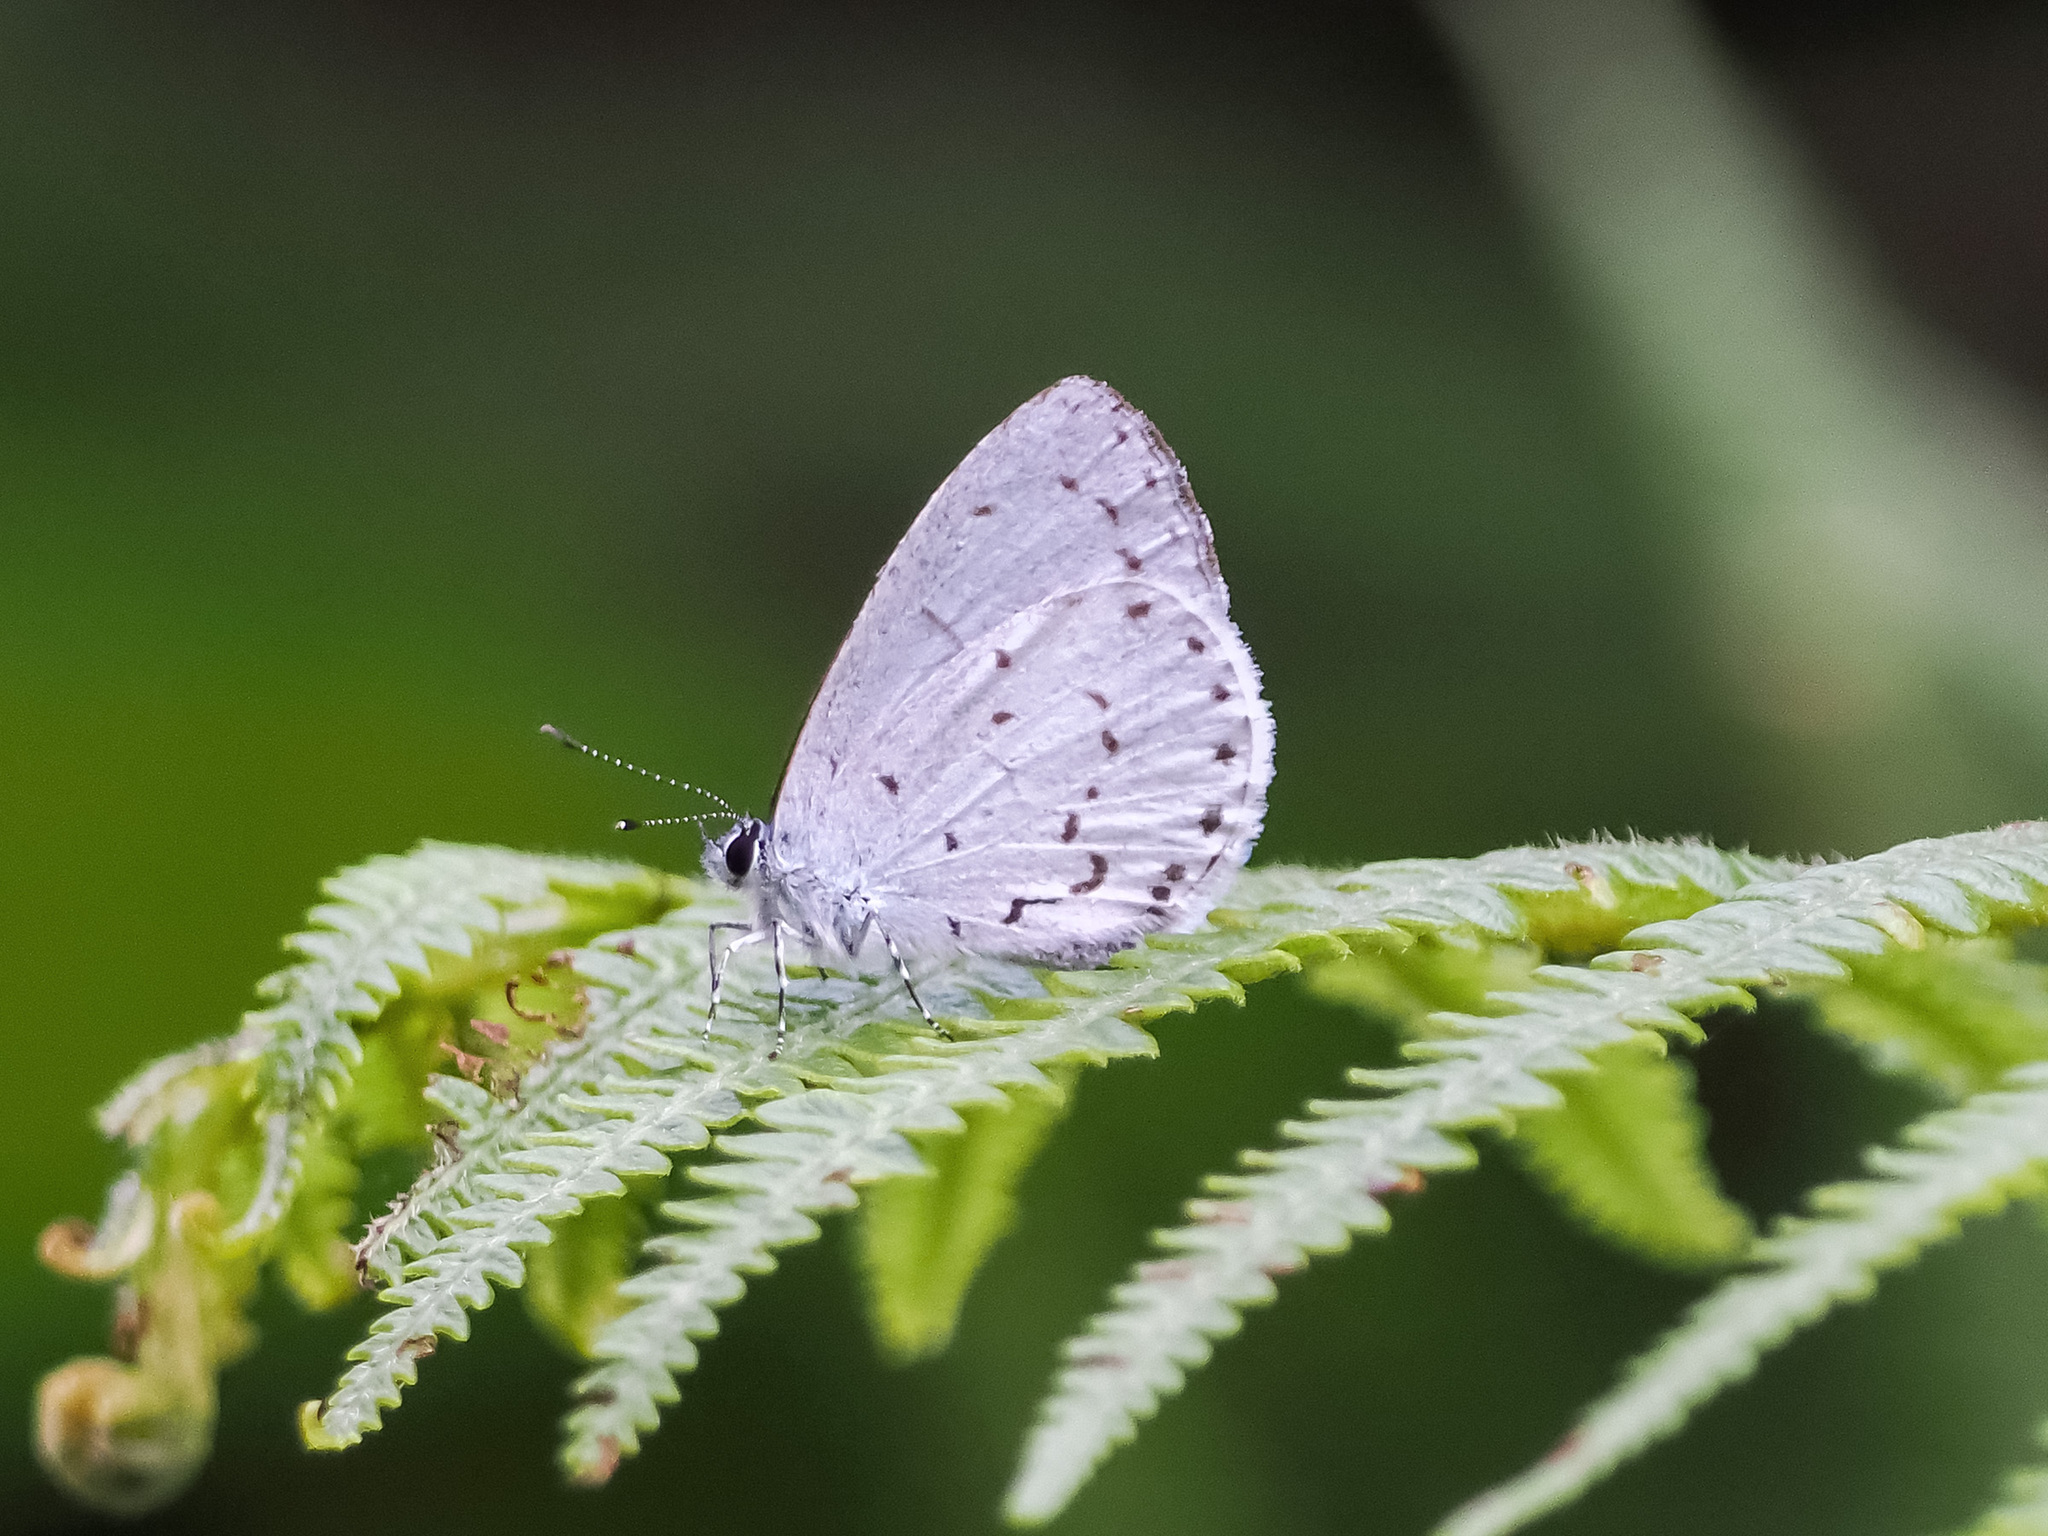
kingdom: Animalia
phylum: Arthropoda
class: Insecta
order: Lepidoptera
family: Lycaenidae
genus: Udara
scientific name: Udara toxopeusi
